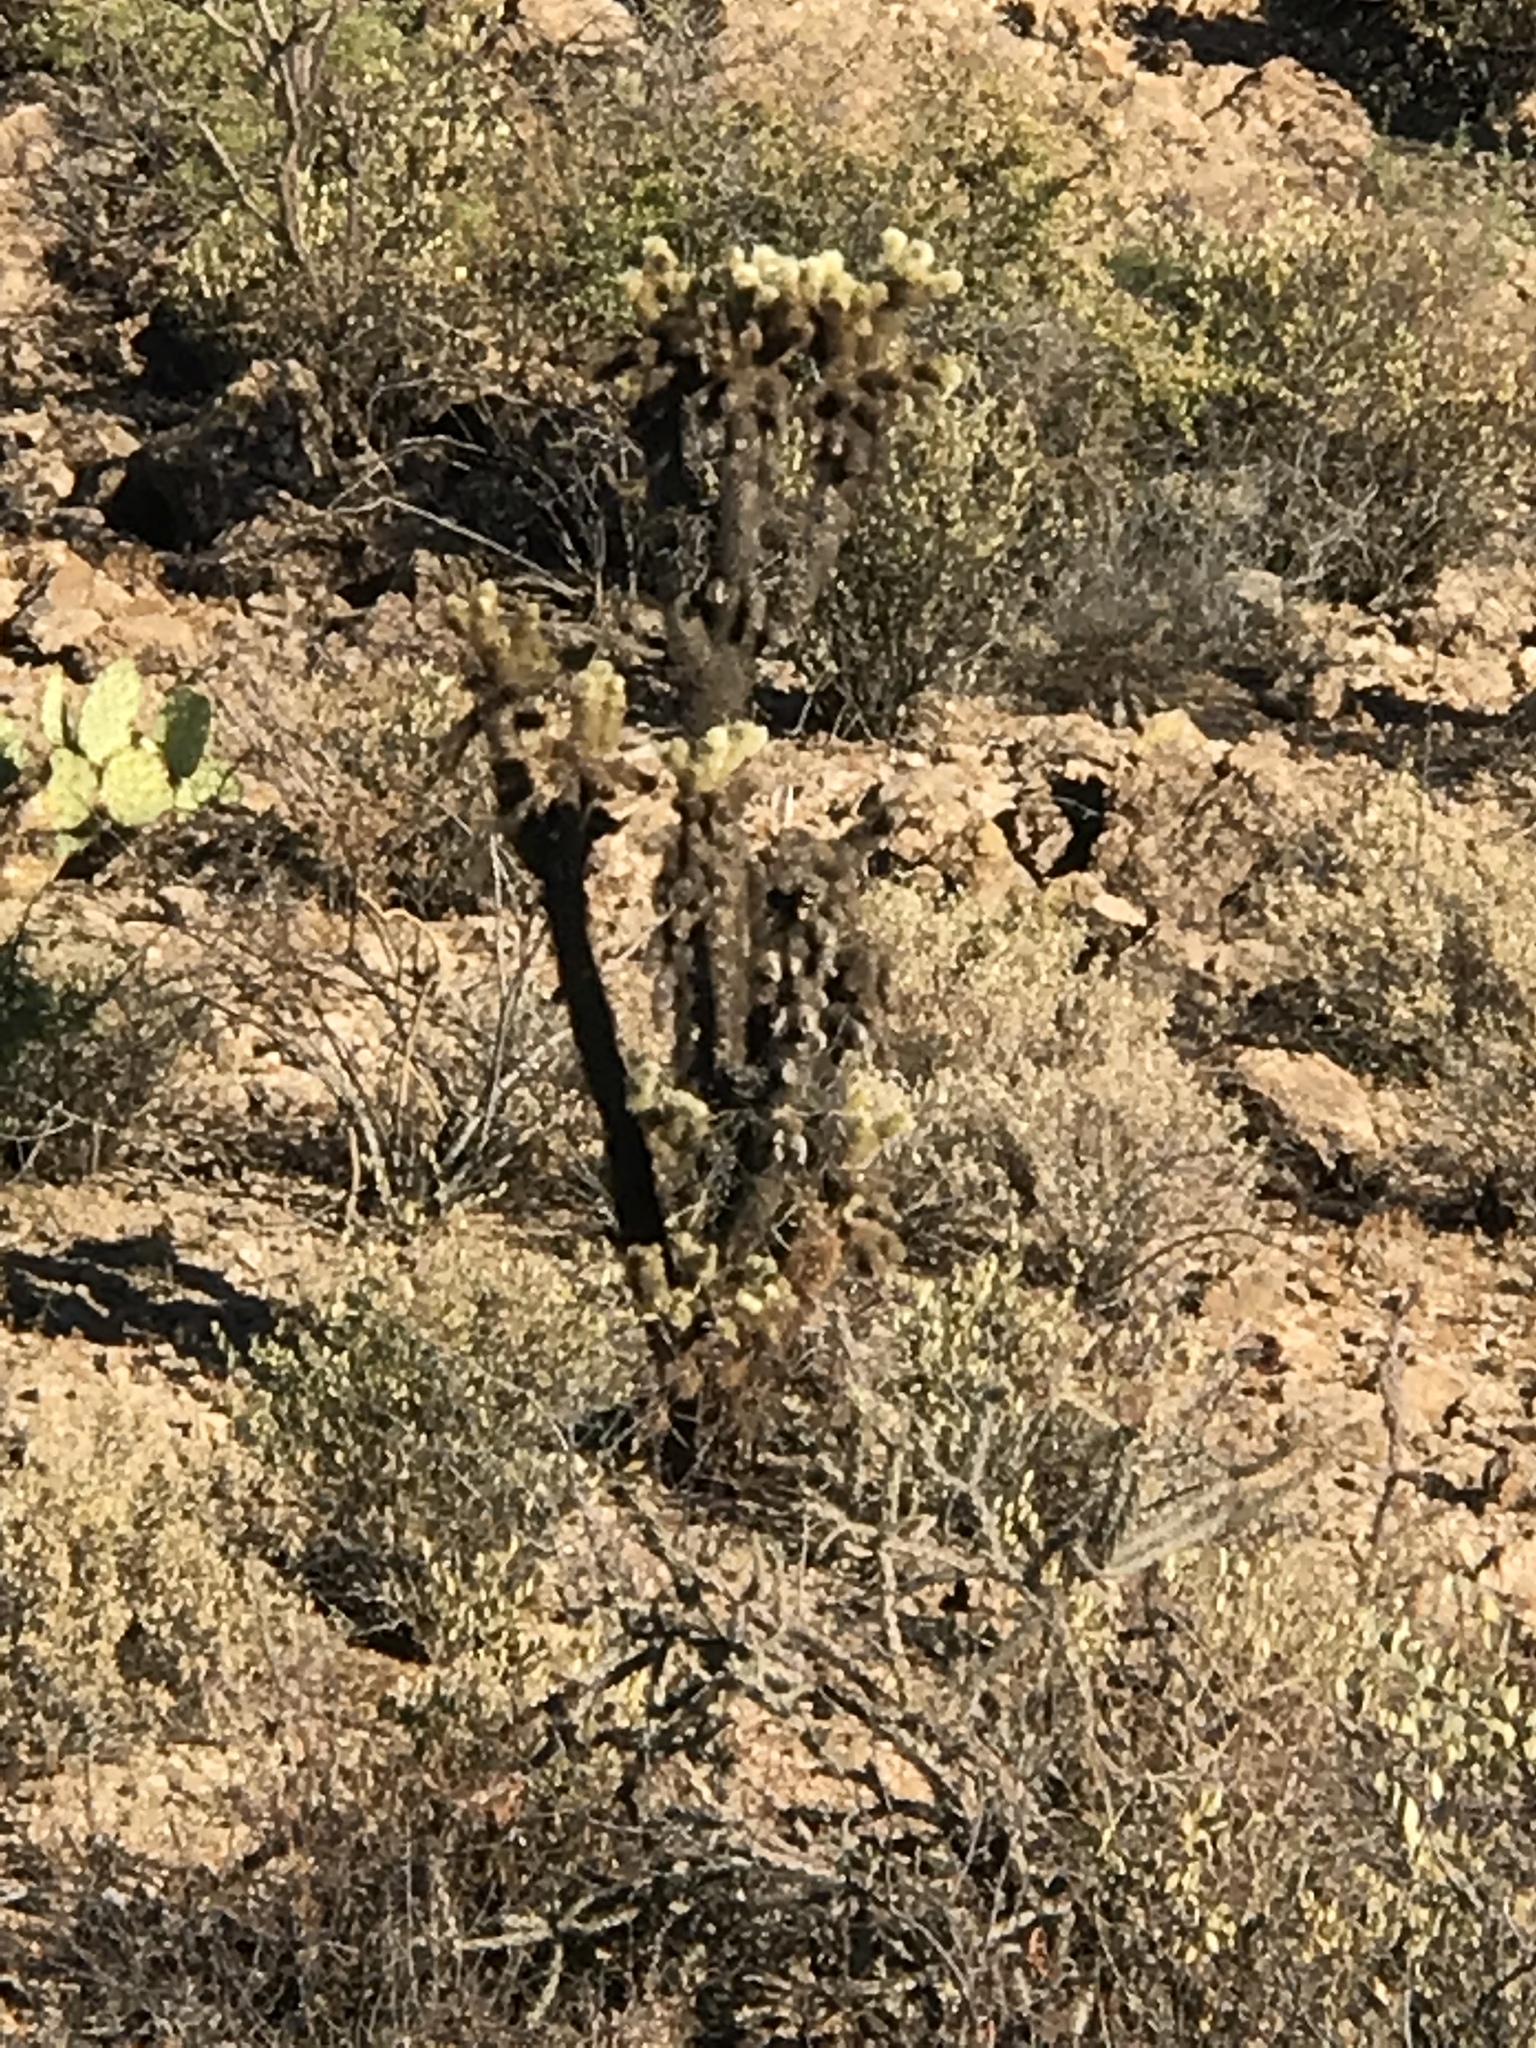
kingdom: Plantae
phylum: Tracheophyta
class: Magnoliopsida
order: Caryophyllales
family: Cactaceae
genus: Cylindropuntia
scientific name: Cylindropuntia fosbergii
